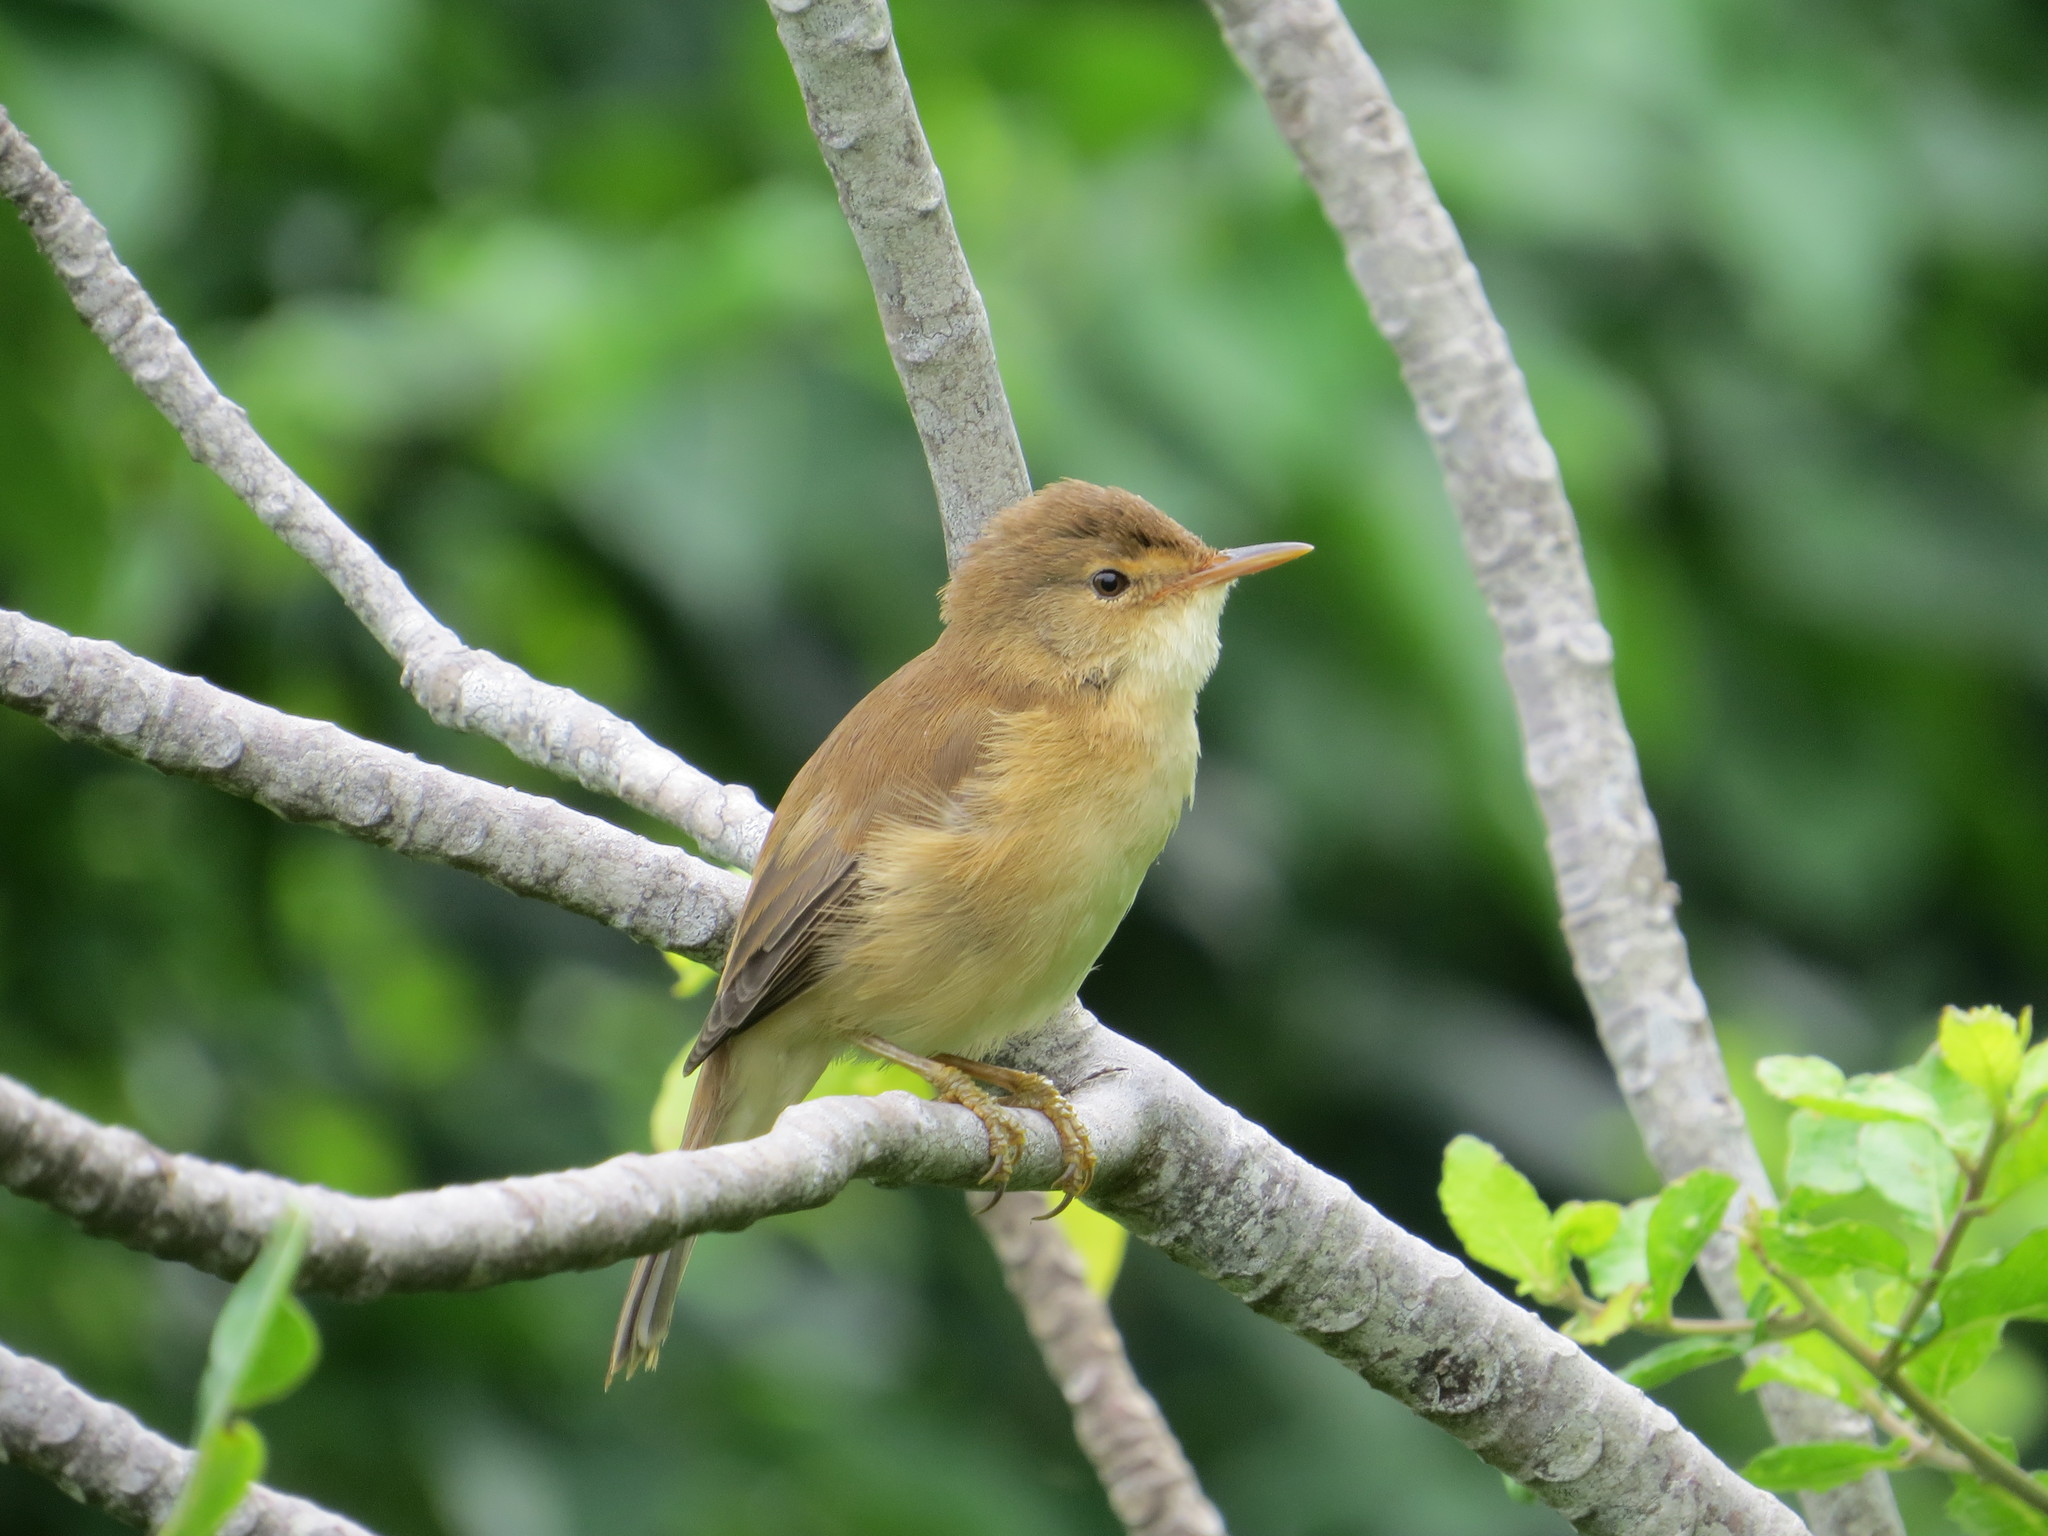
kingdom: Animalia
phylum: Chordata
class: Aves
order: Passeriformes
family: Acrocephalidae
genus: Acrocephalus
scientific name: Acrocephalus scirpaceus
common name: Eurasian reed warbler
